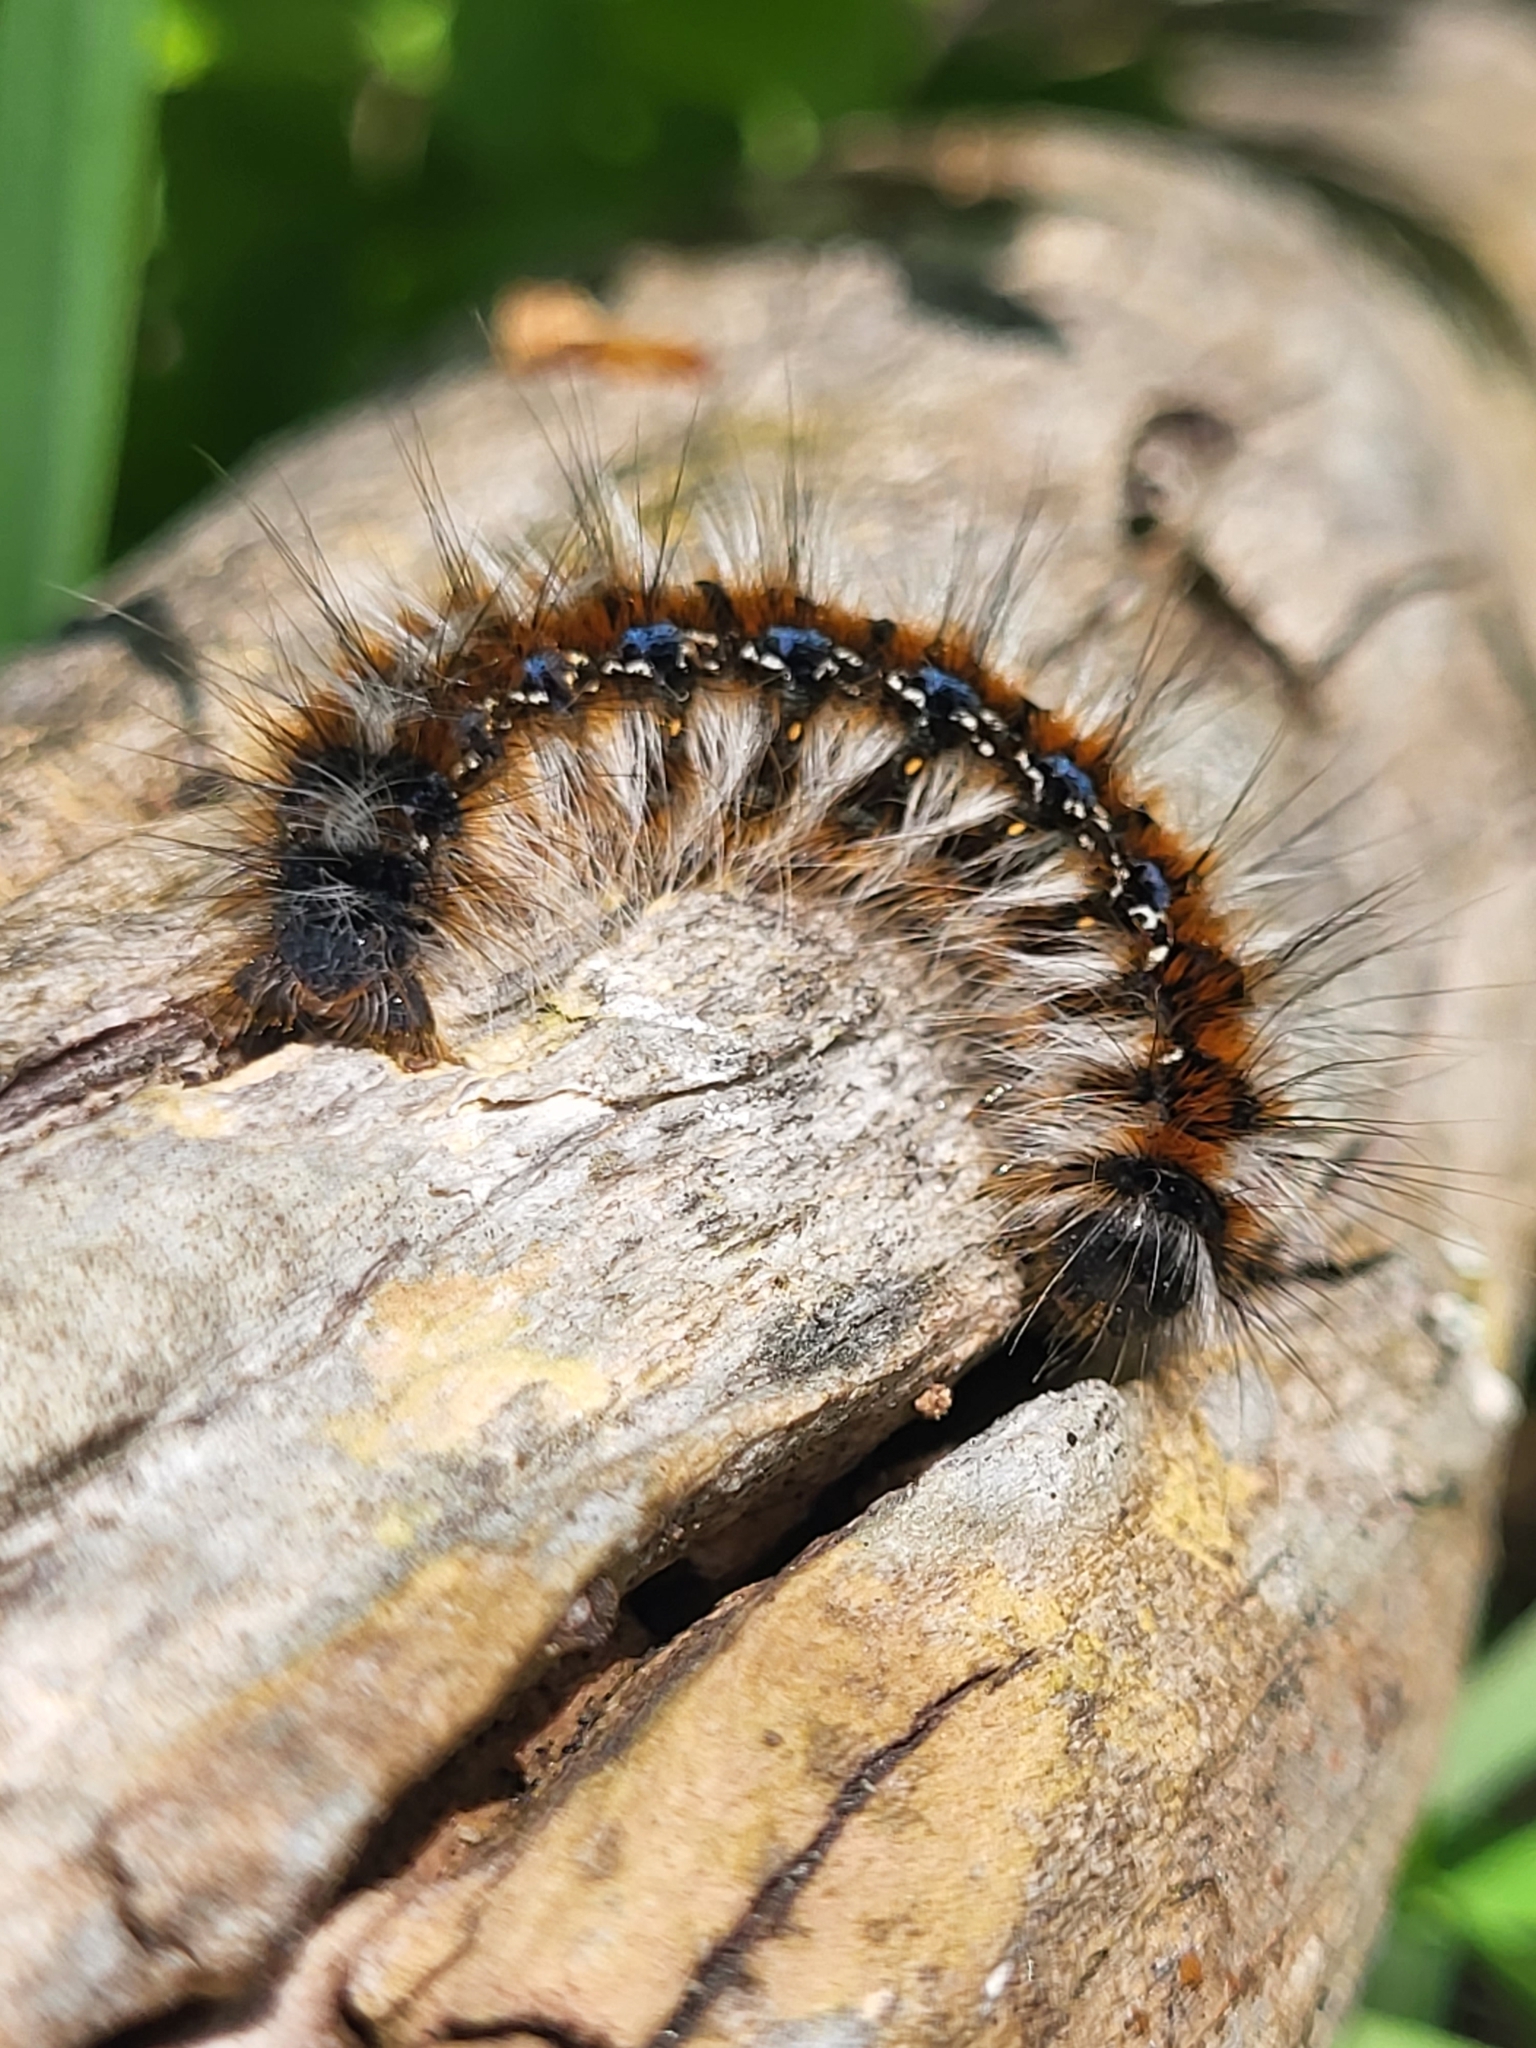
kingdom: Animalia
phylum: Arthropoda
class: Insecta
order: Lepidoptera
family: Lasiocampidae
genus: Eriogaster
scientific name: Eriogaster catax
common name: Eastern eggar
